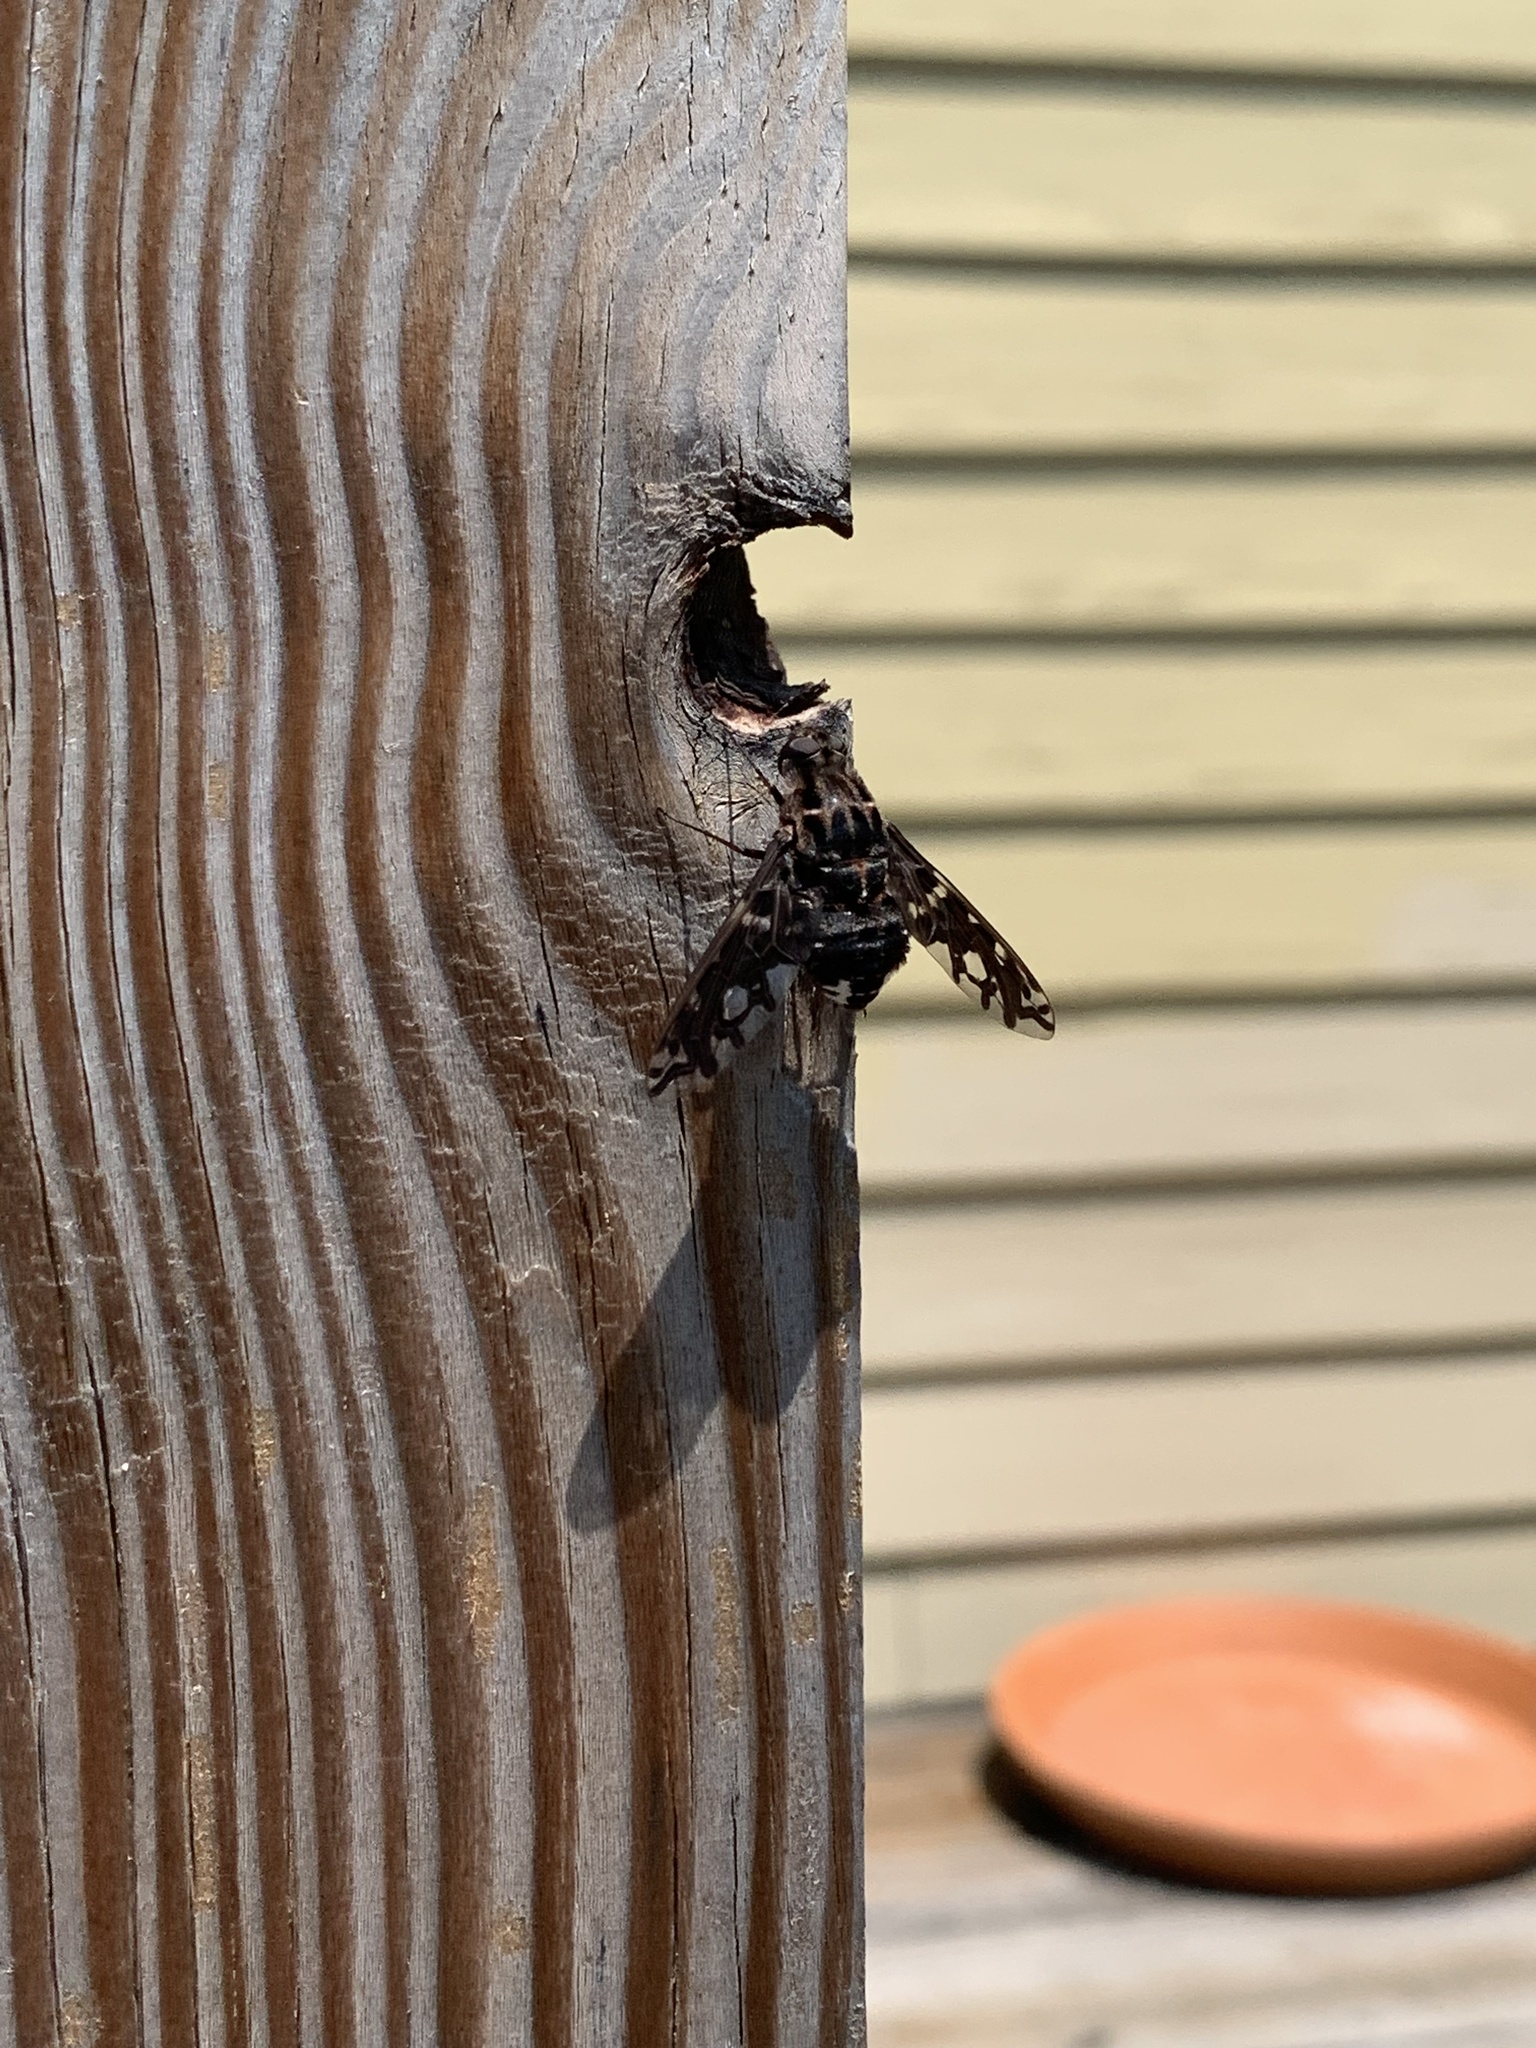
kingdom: Animalia
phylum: Arthropoda
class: Insecta
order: Diptera
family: Bombyliidae
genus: Xenox
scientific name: Xenox tigrinus
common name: Tiger bee fly
